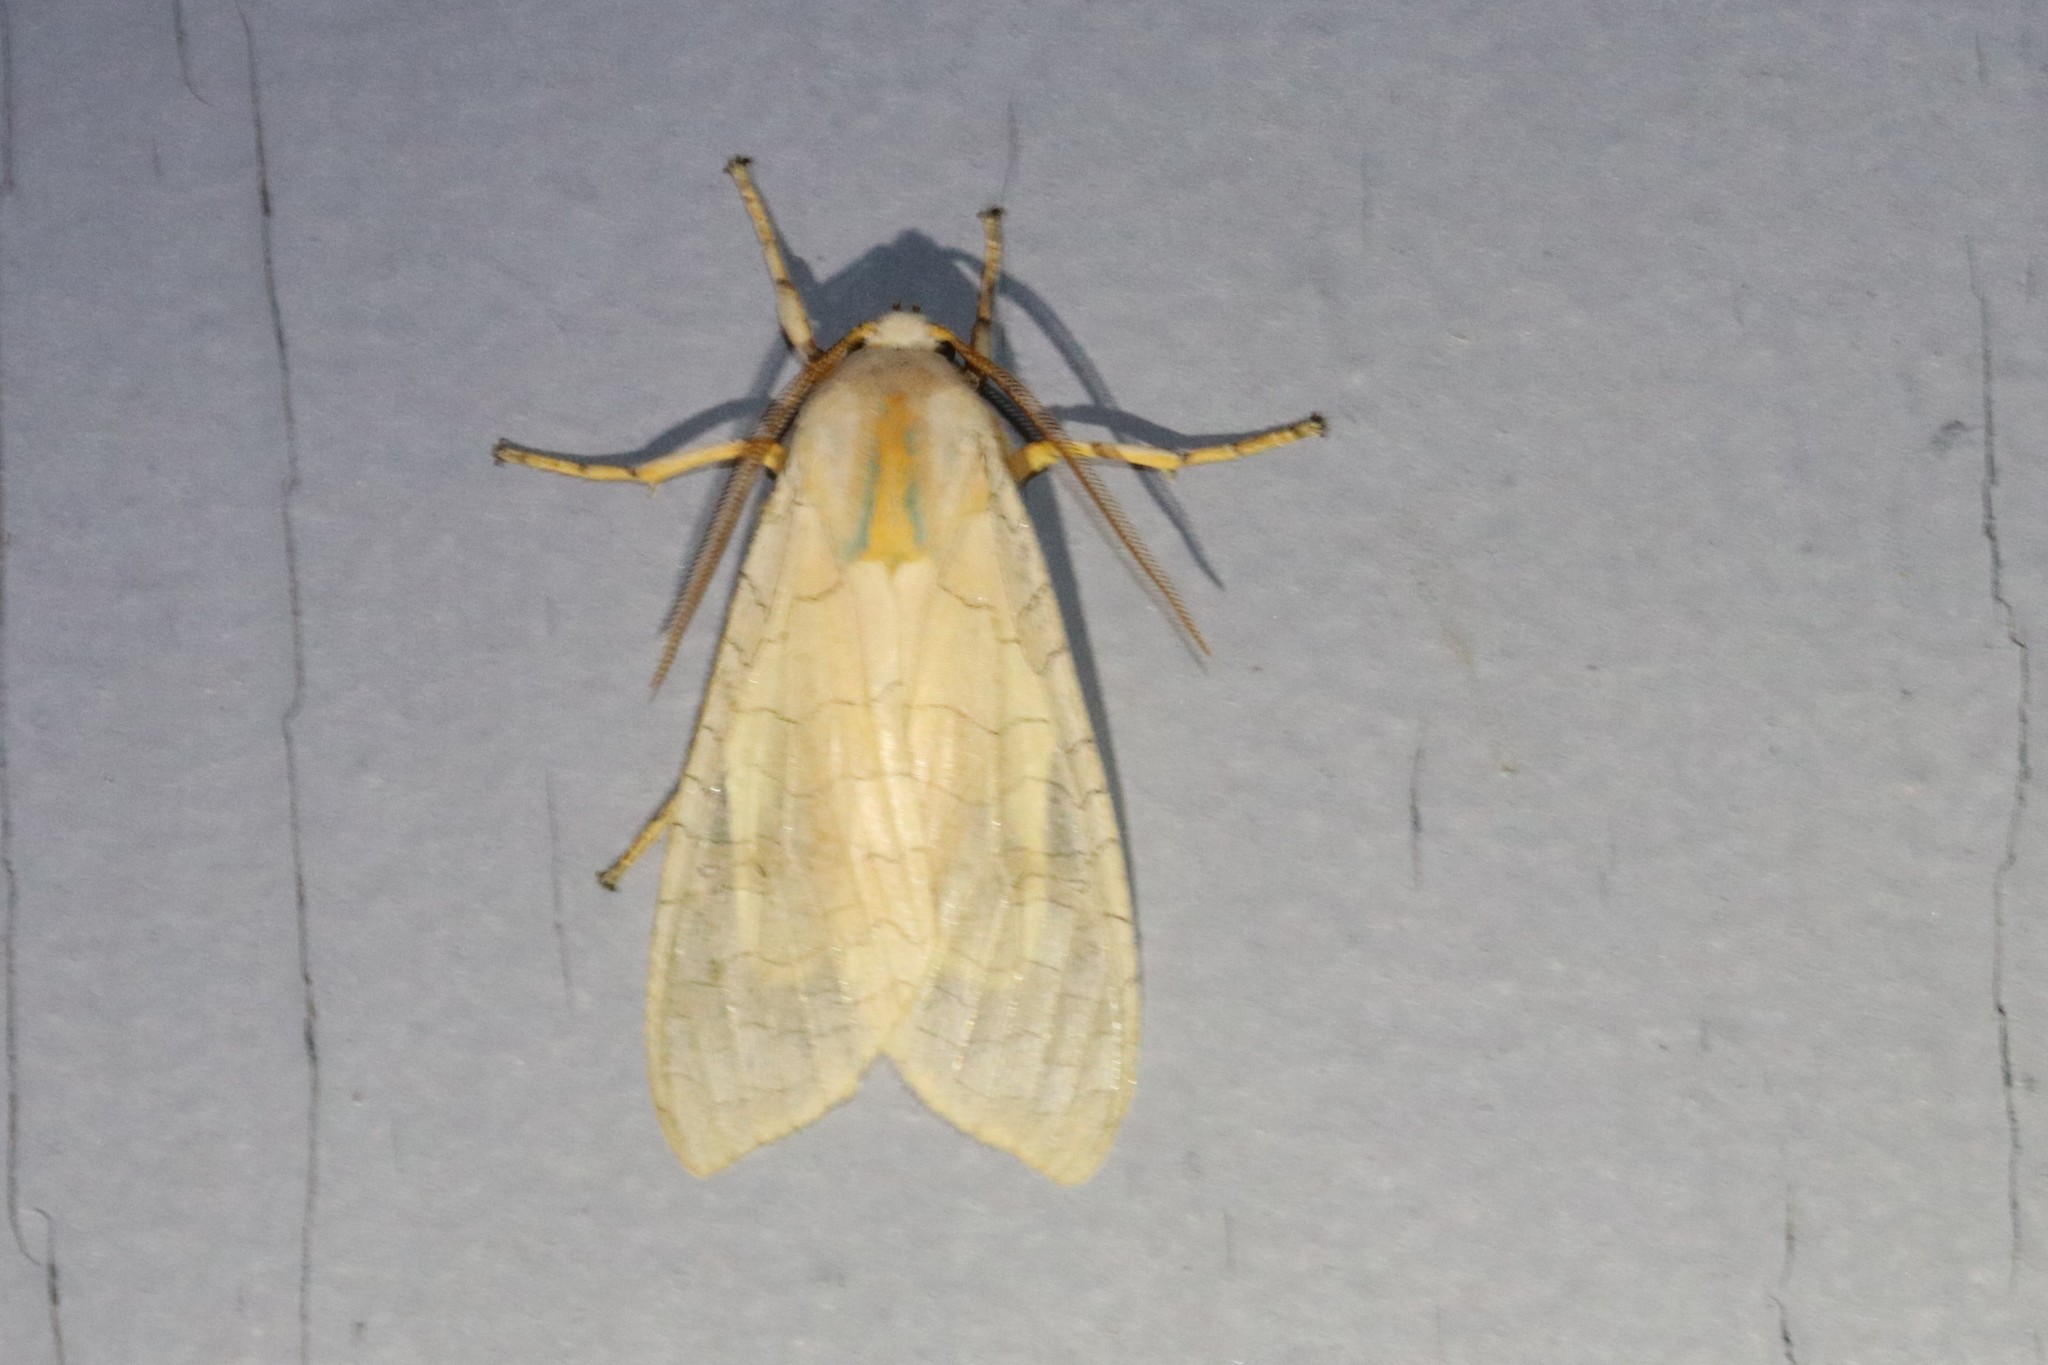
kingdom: Animalia
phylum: Arthropoda
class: Insecta
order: Lepidoptera
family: Erebidae
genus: Halysidota
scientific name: Halysidota tessellaris
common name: Banded tussock moth
